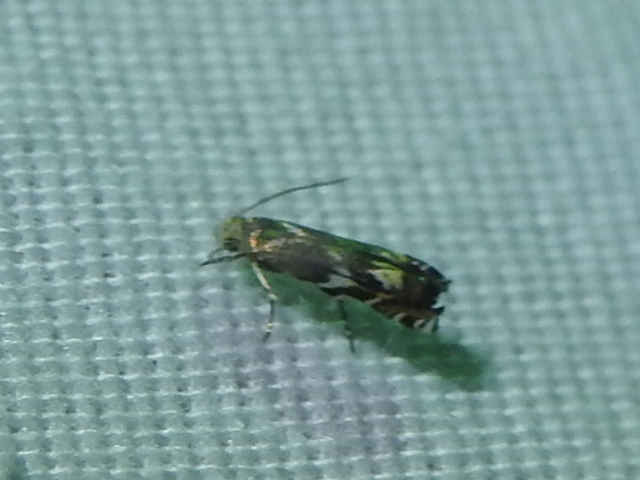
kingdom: Animalia
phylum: Arthropoda
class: Insecta
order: Lepidoptera
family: Gelechiidae
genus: Calliprora
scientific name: Calliprora sexstrigella
